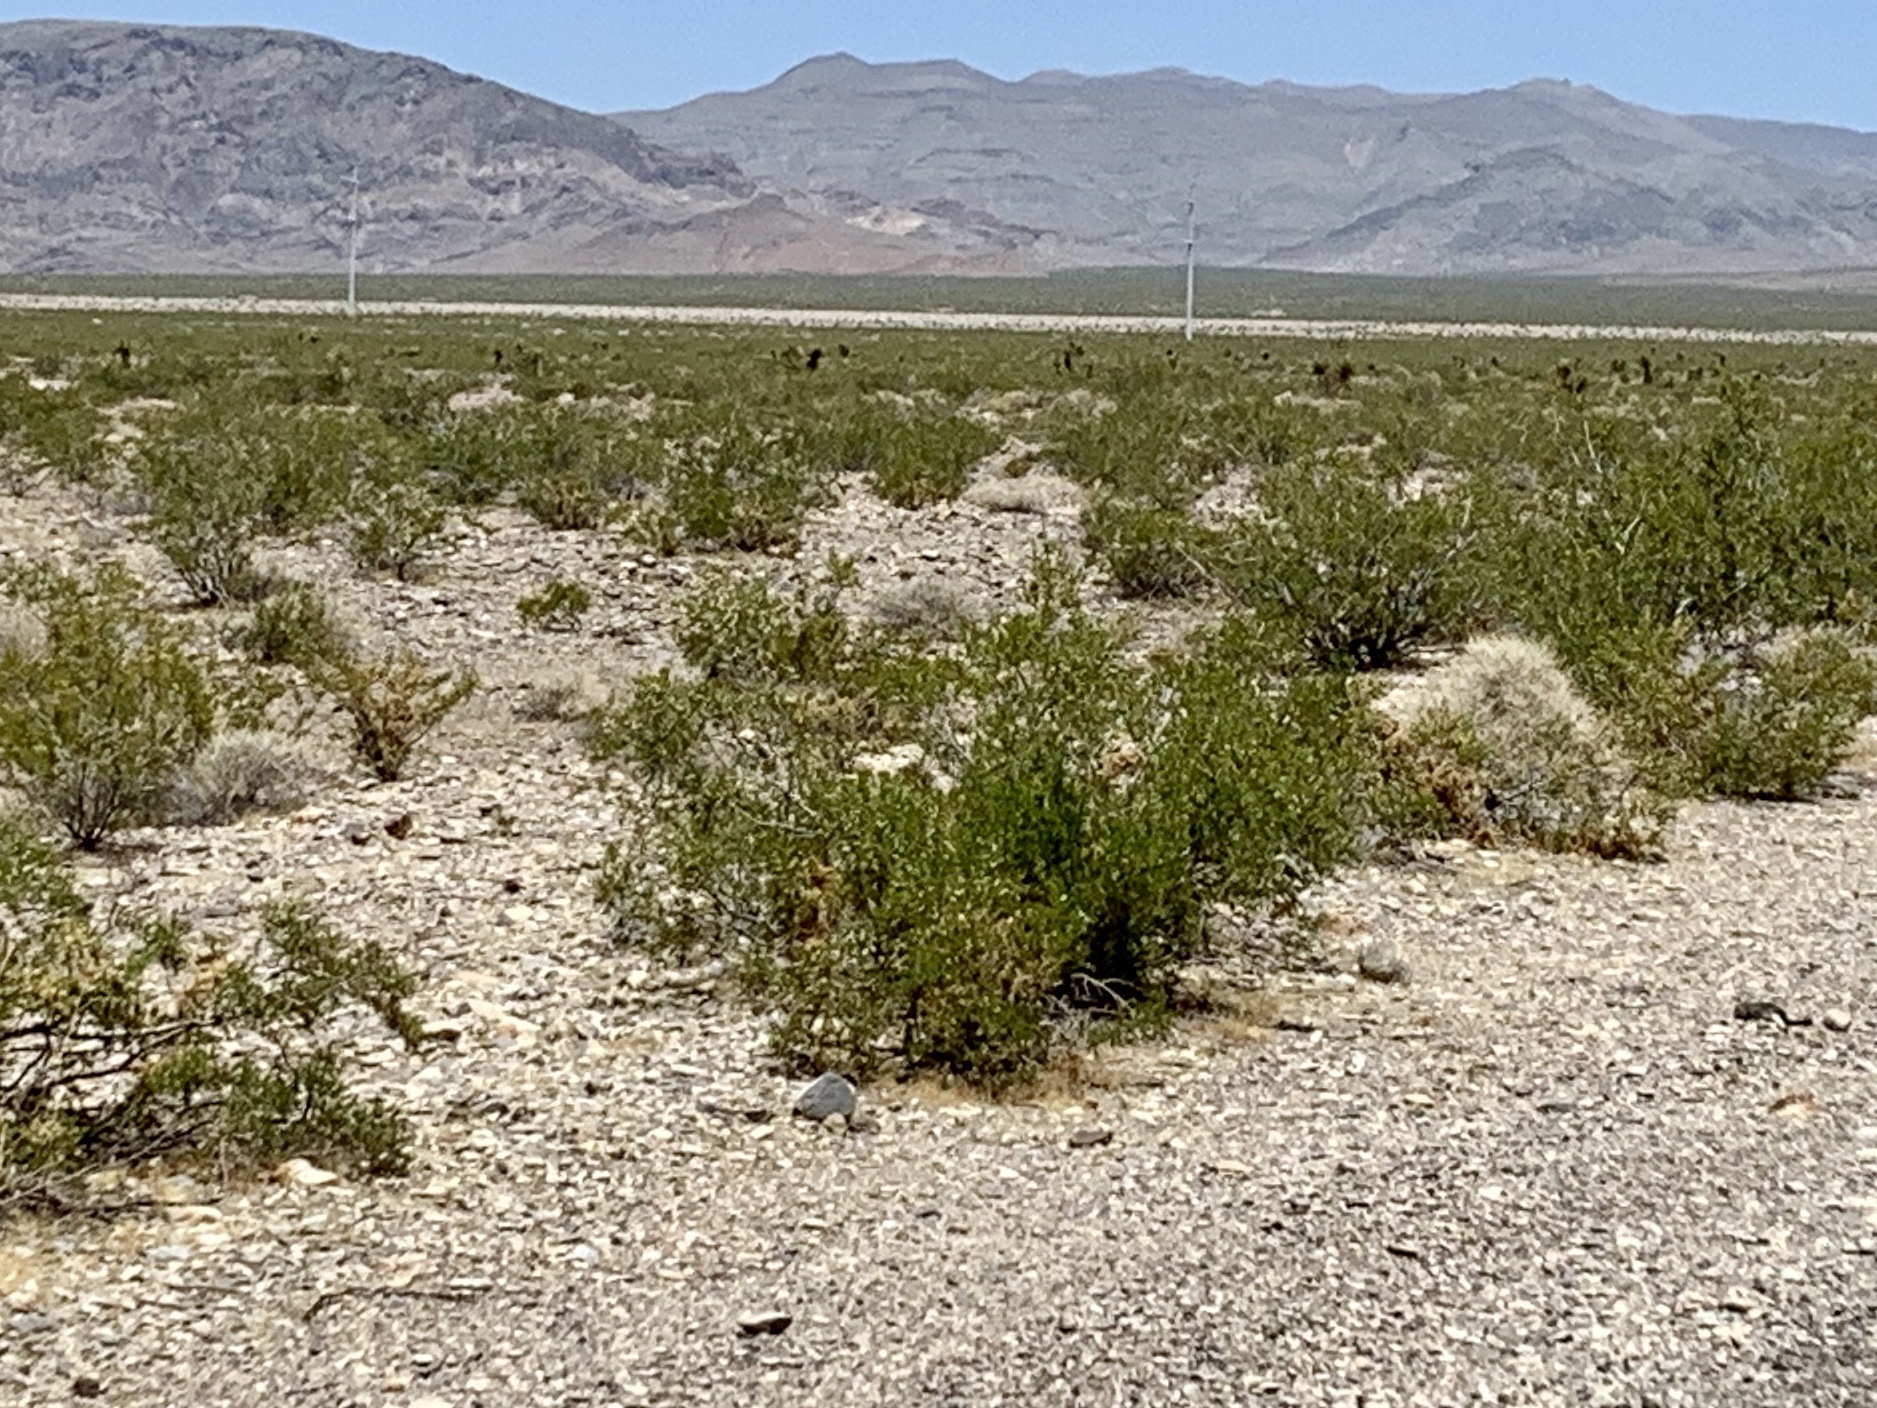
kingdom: Plantae
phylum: Tracheophyta
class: Magnoliopsida
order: Zygophyllales
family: Zygophyllaceae
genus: Larrea
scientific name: Larrea tridentata
